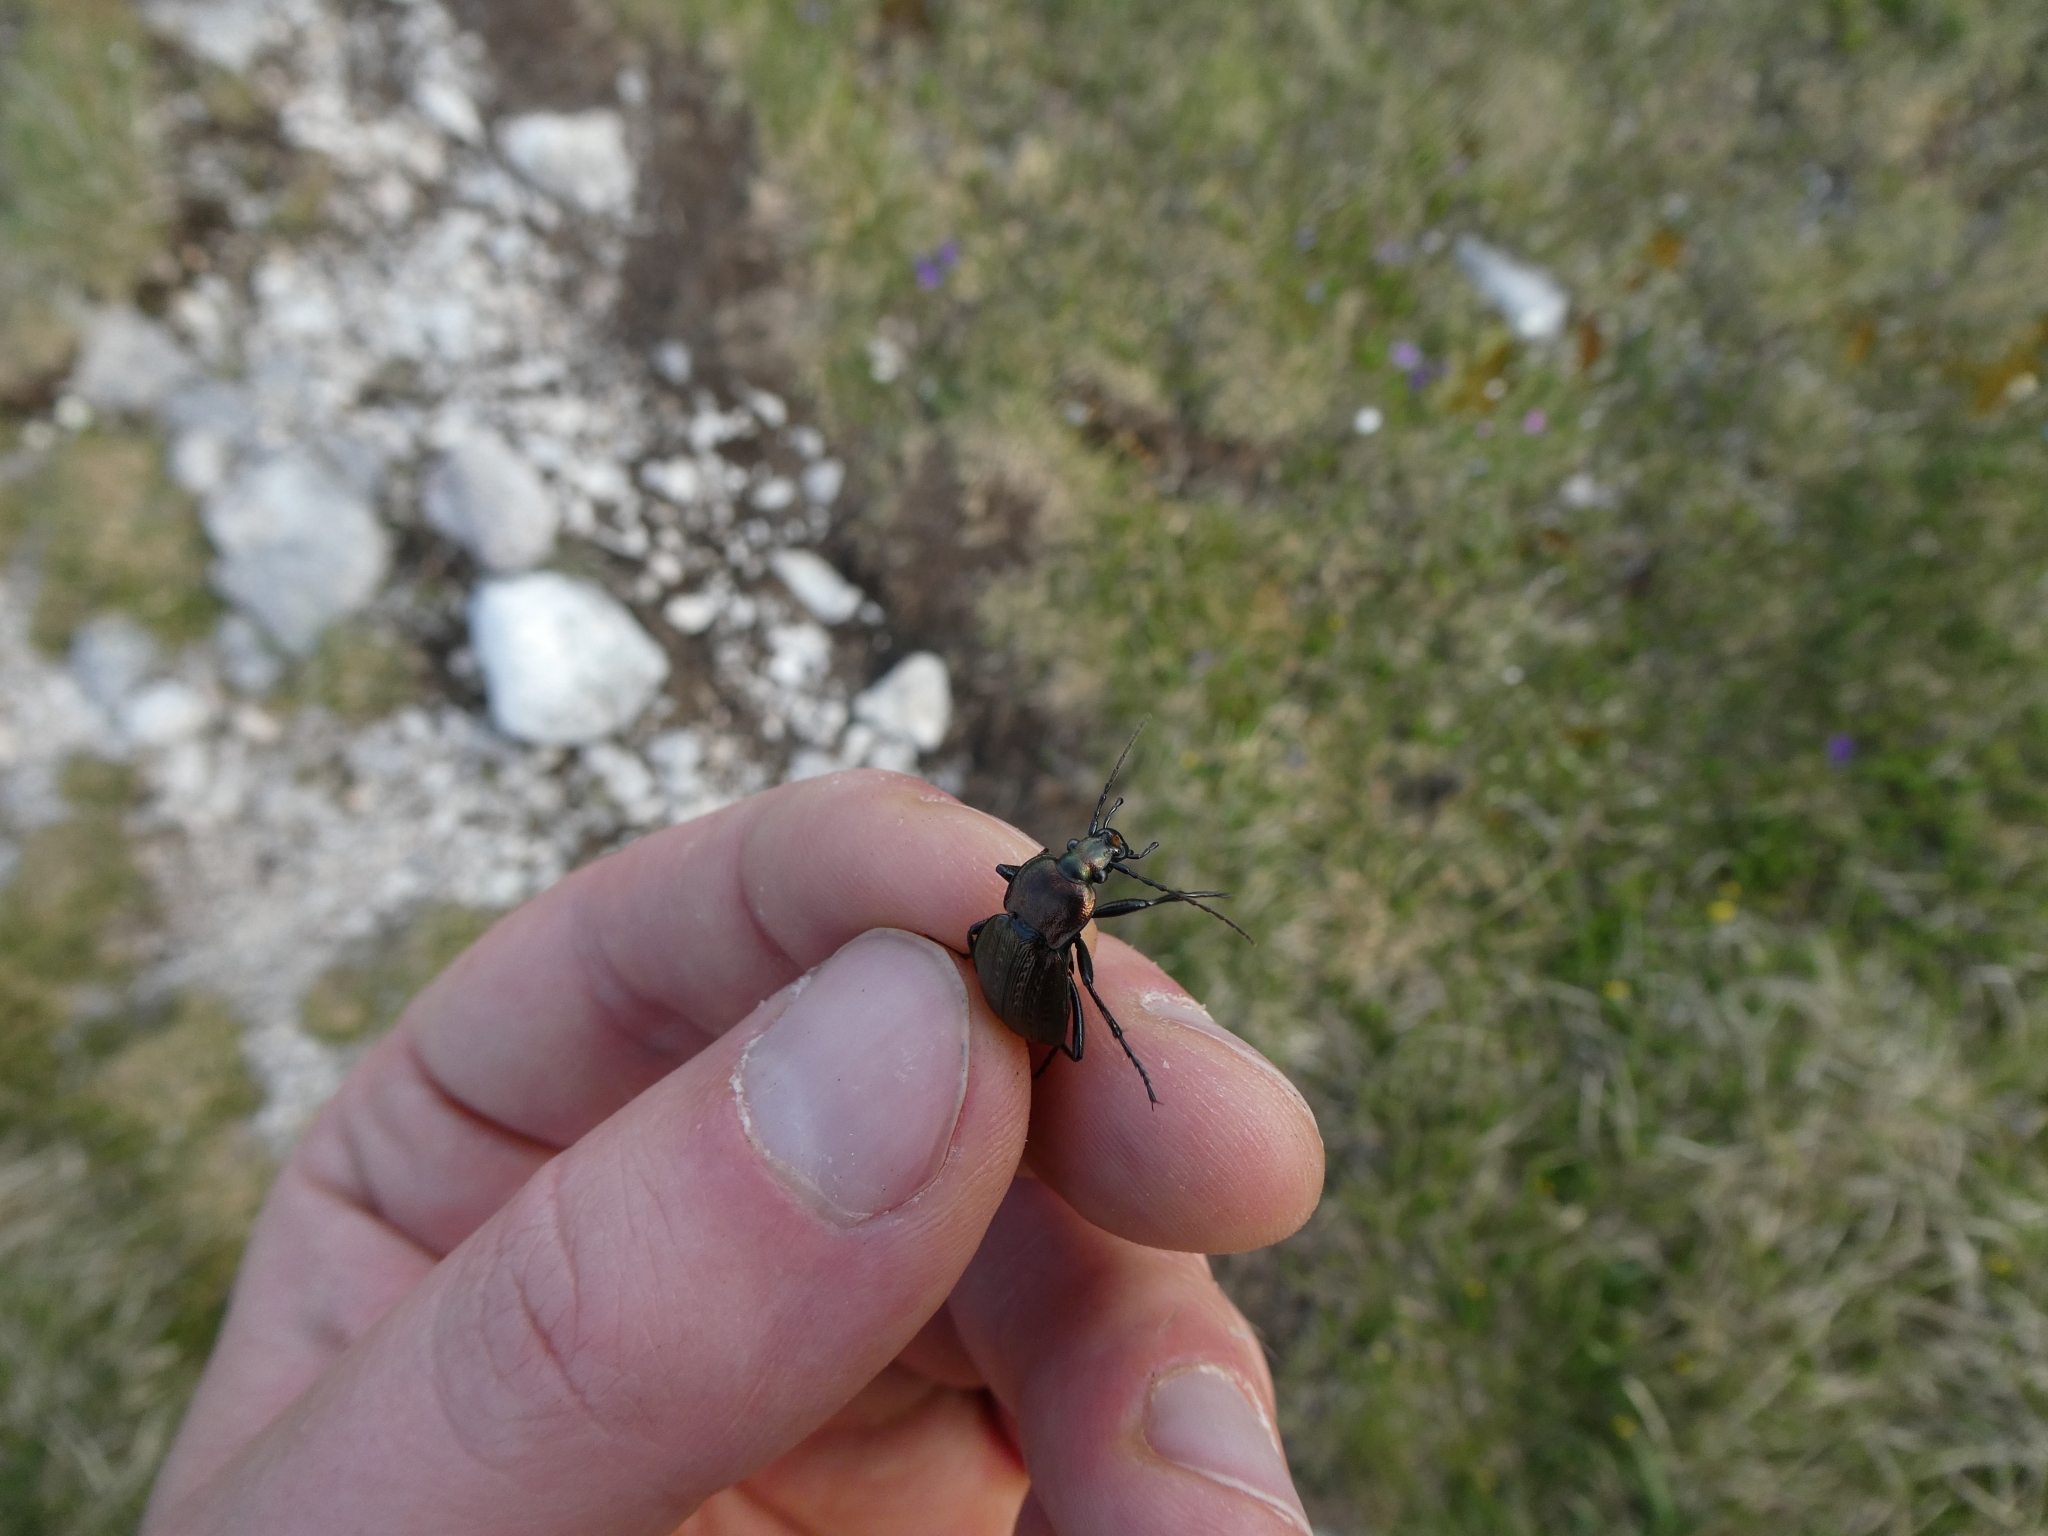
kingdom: Animalia
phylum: Arthropoda
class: Insecta
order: Coleoptera
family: Carabidae
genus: Carabus
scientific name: Carabus arvensis
